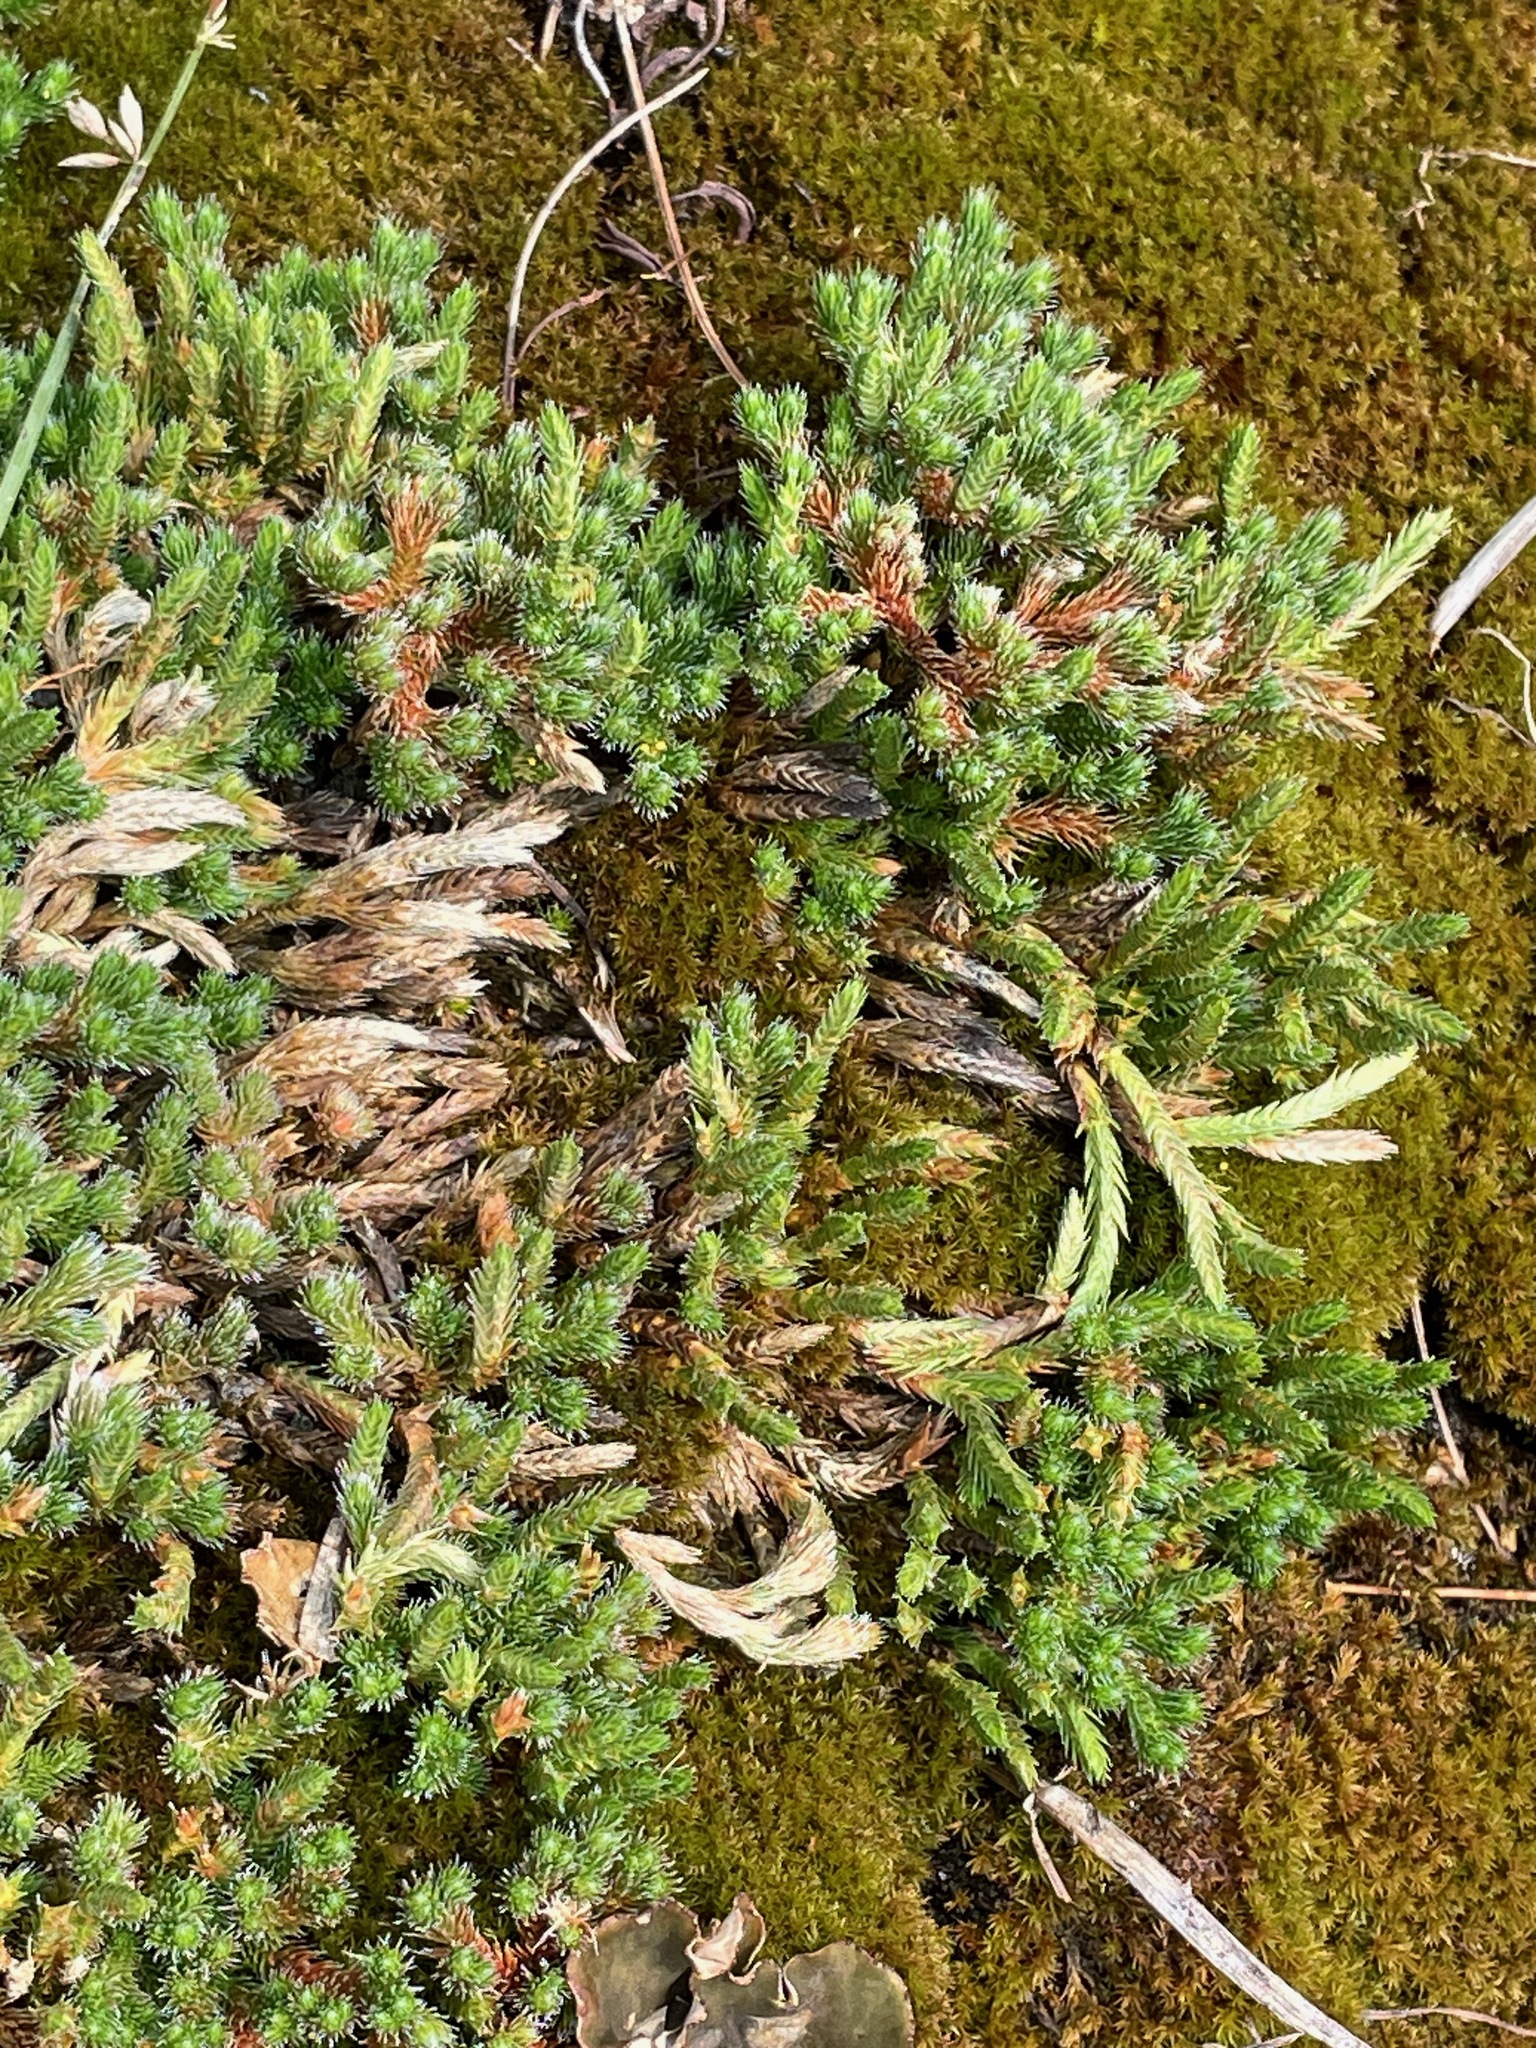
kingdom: Plantae
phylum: Tracheophyta
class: Lycopodiopsida
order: Selaginellales
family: Selaginellaceae
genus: Selaginella
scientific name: Selaginella rupestris
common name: Dwarf spikemoss
